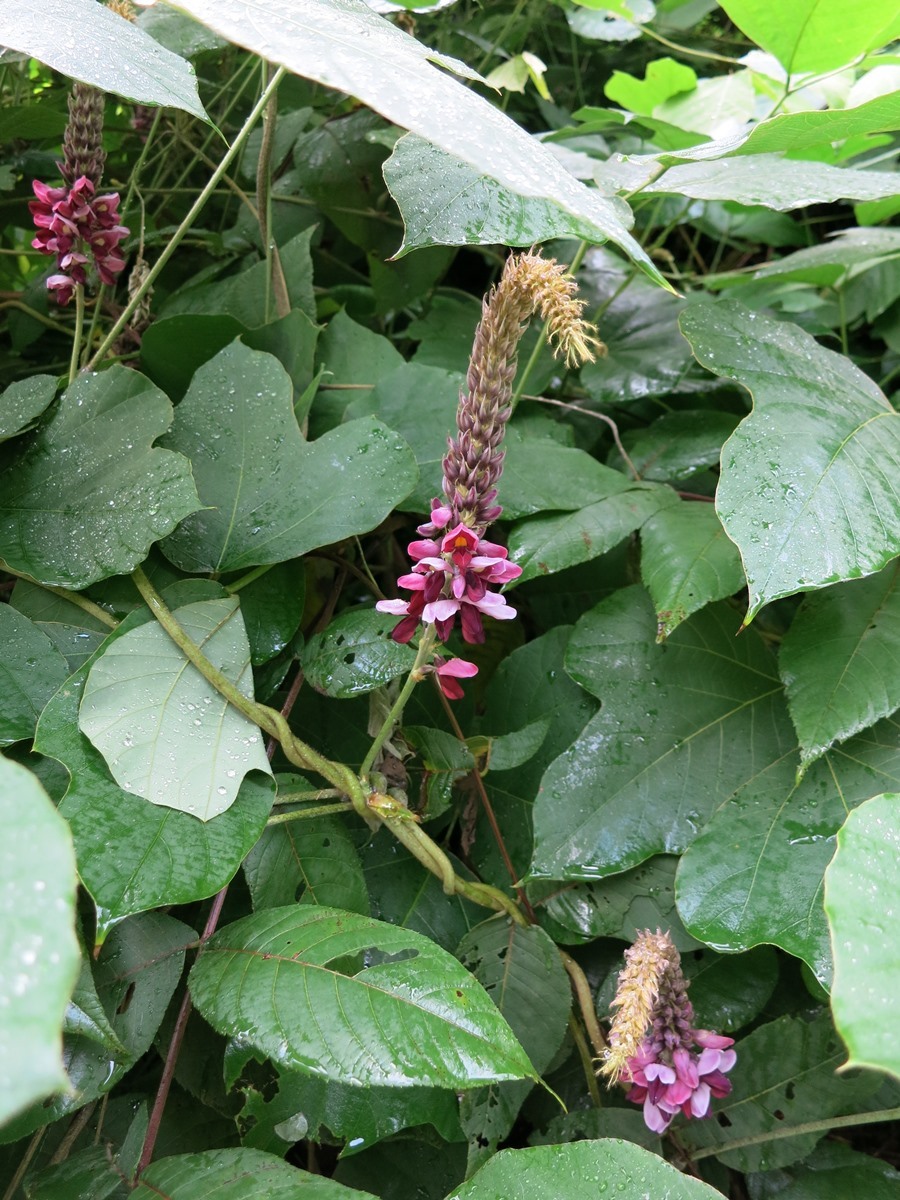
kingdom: Plantae
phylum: Tracheophyta
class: Magnoliopsida
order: Fabales
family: Fabaceae
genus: Pueraria
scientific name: Pueraria montana
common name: Kudzu
